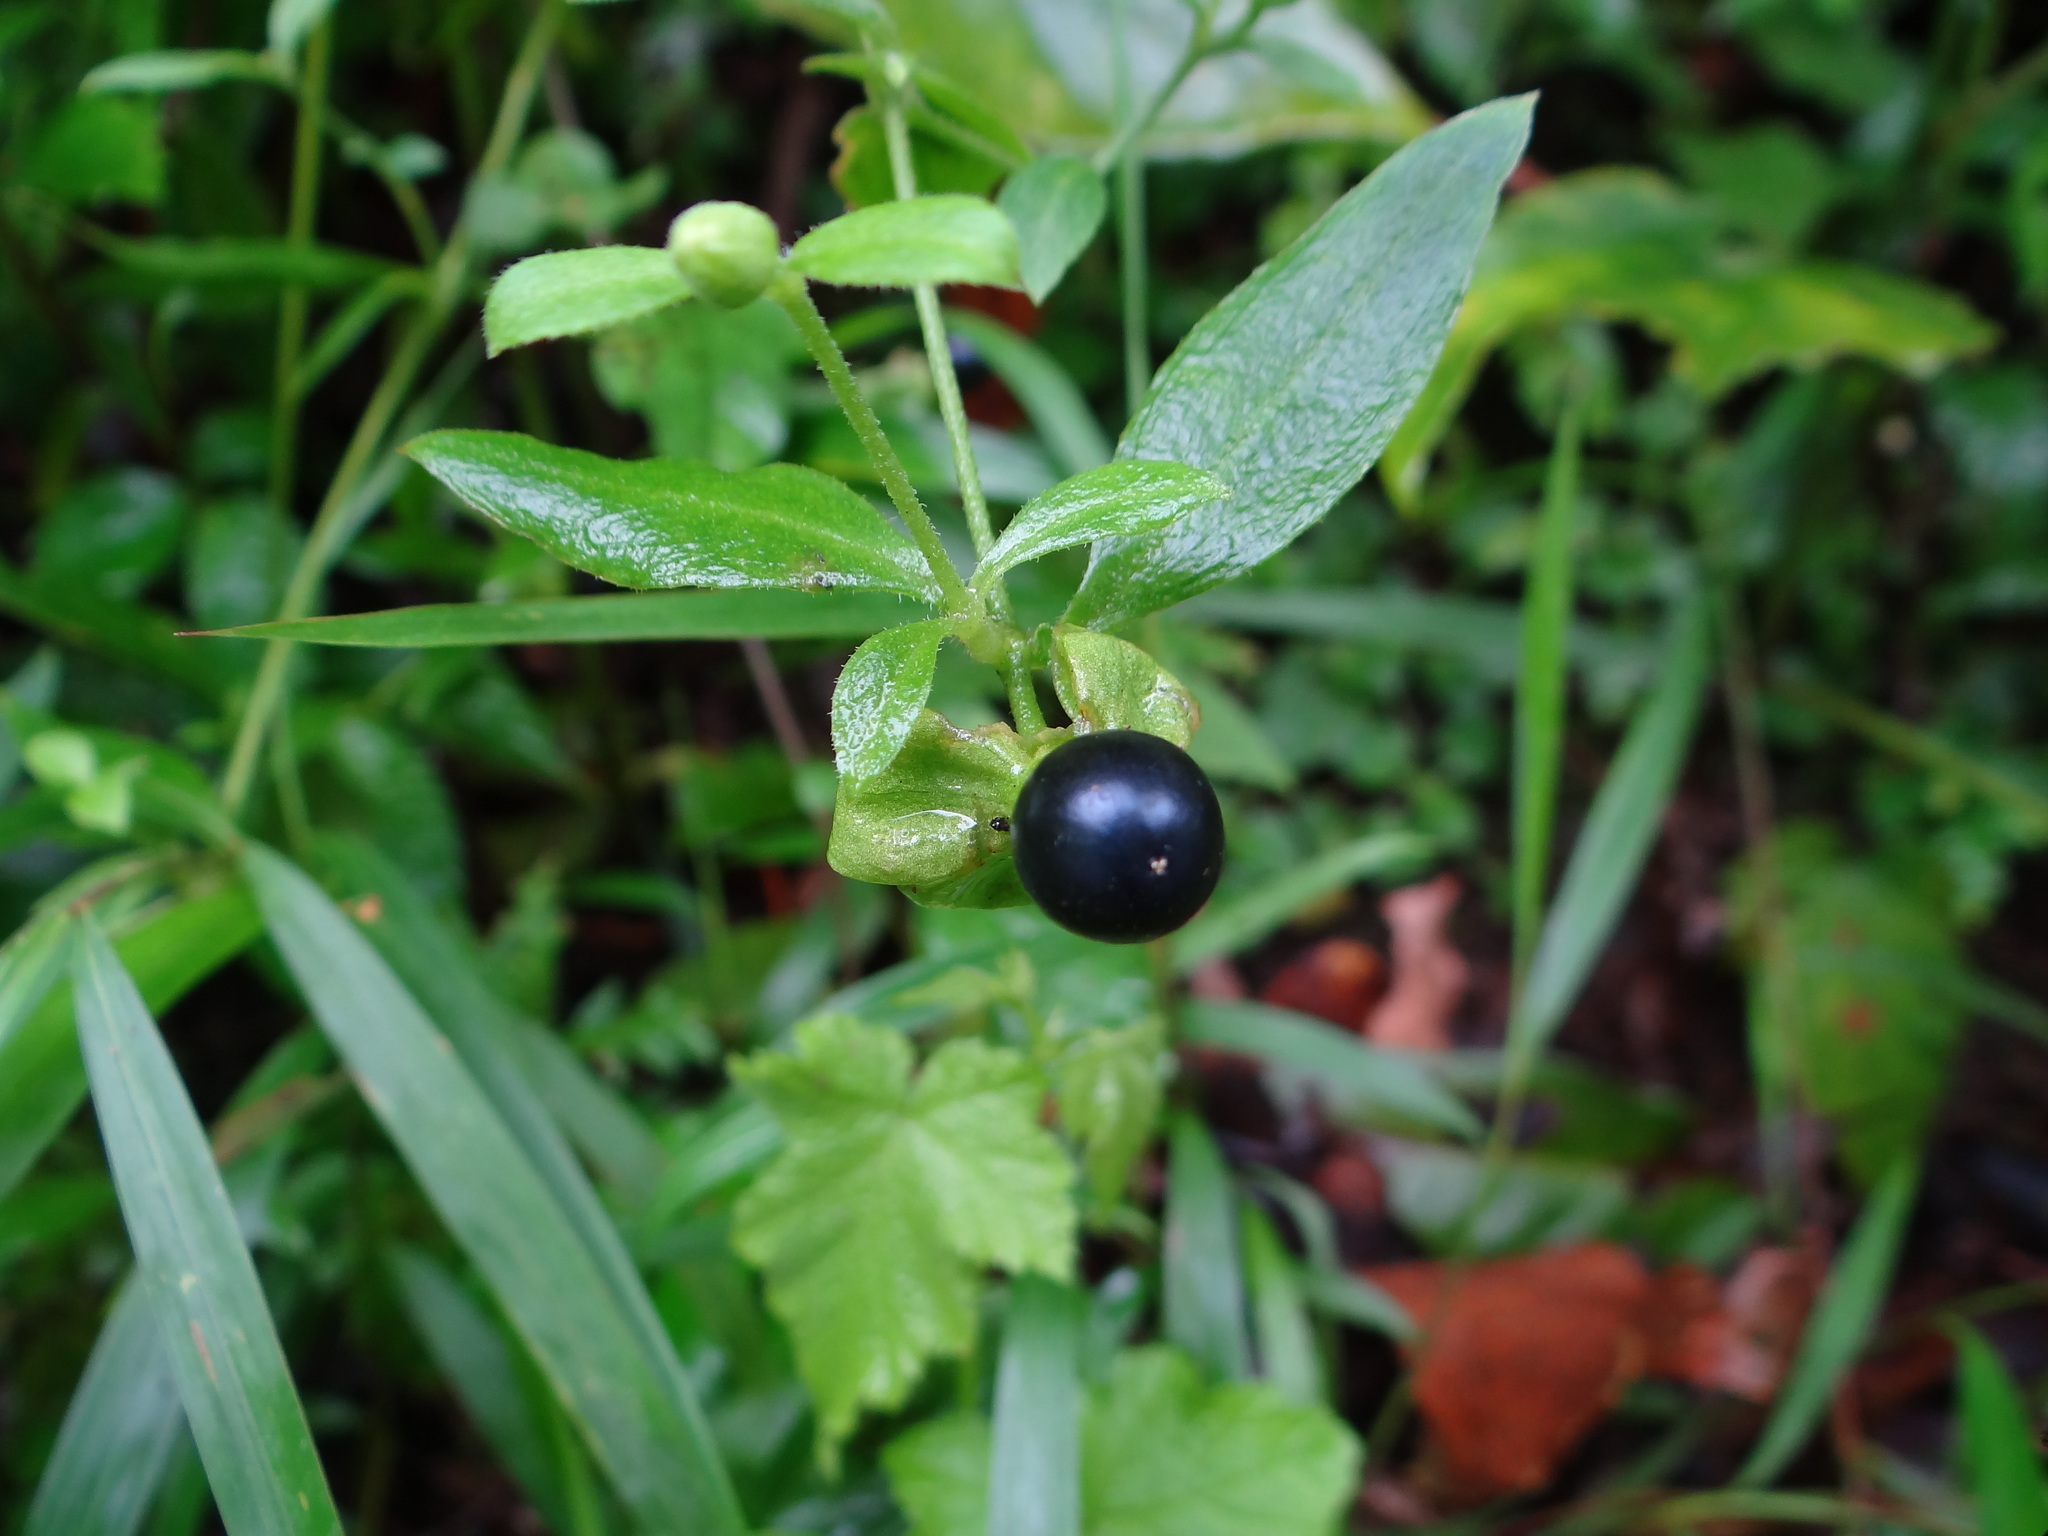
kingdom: Plantae
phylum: Tracheophyta
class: Magnoliopsida
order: Caryophyllales
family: Caryophyllaceae
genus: Silene
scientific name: Silene baccifera
